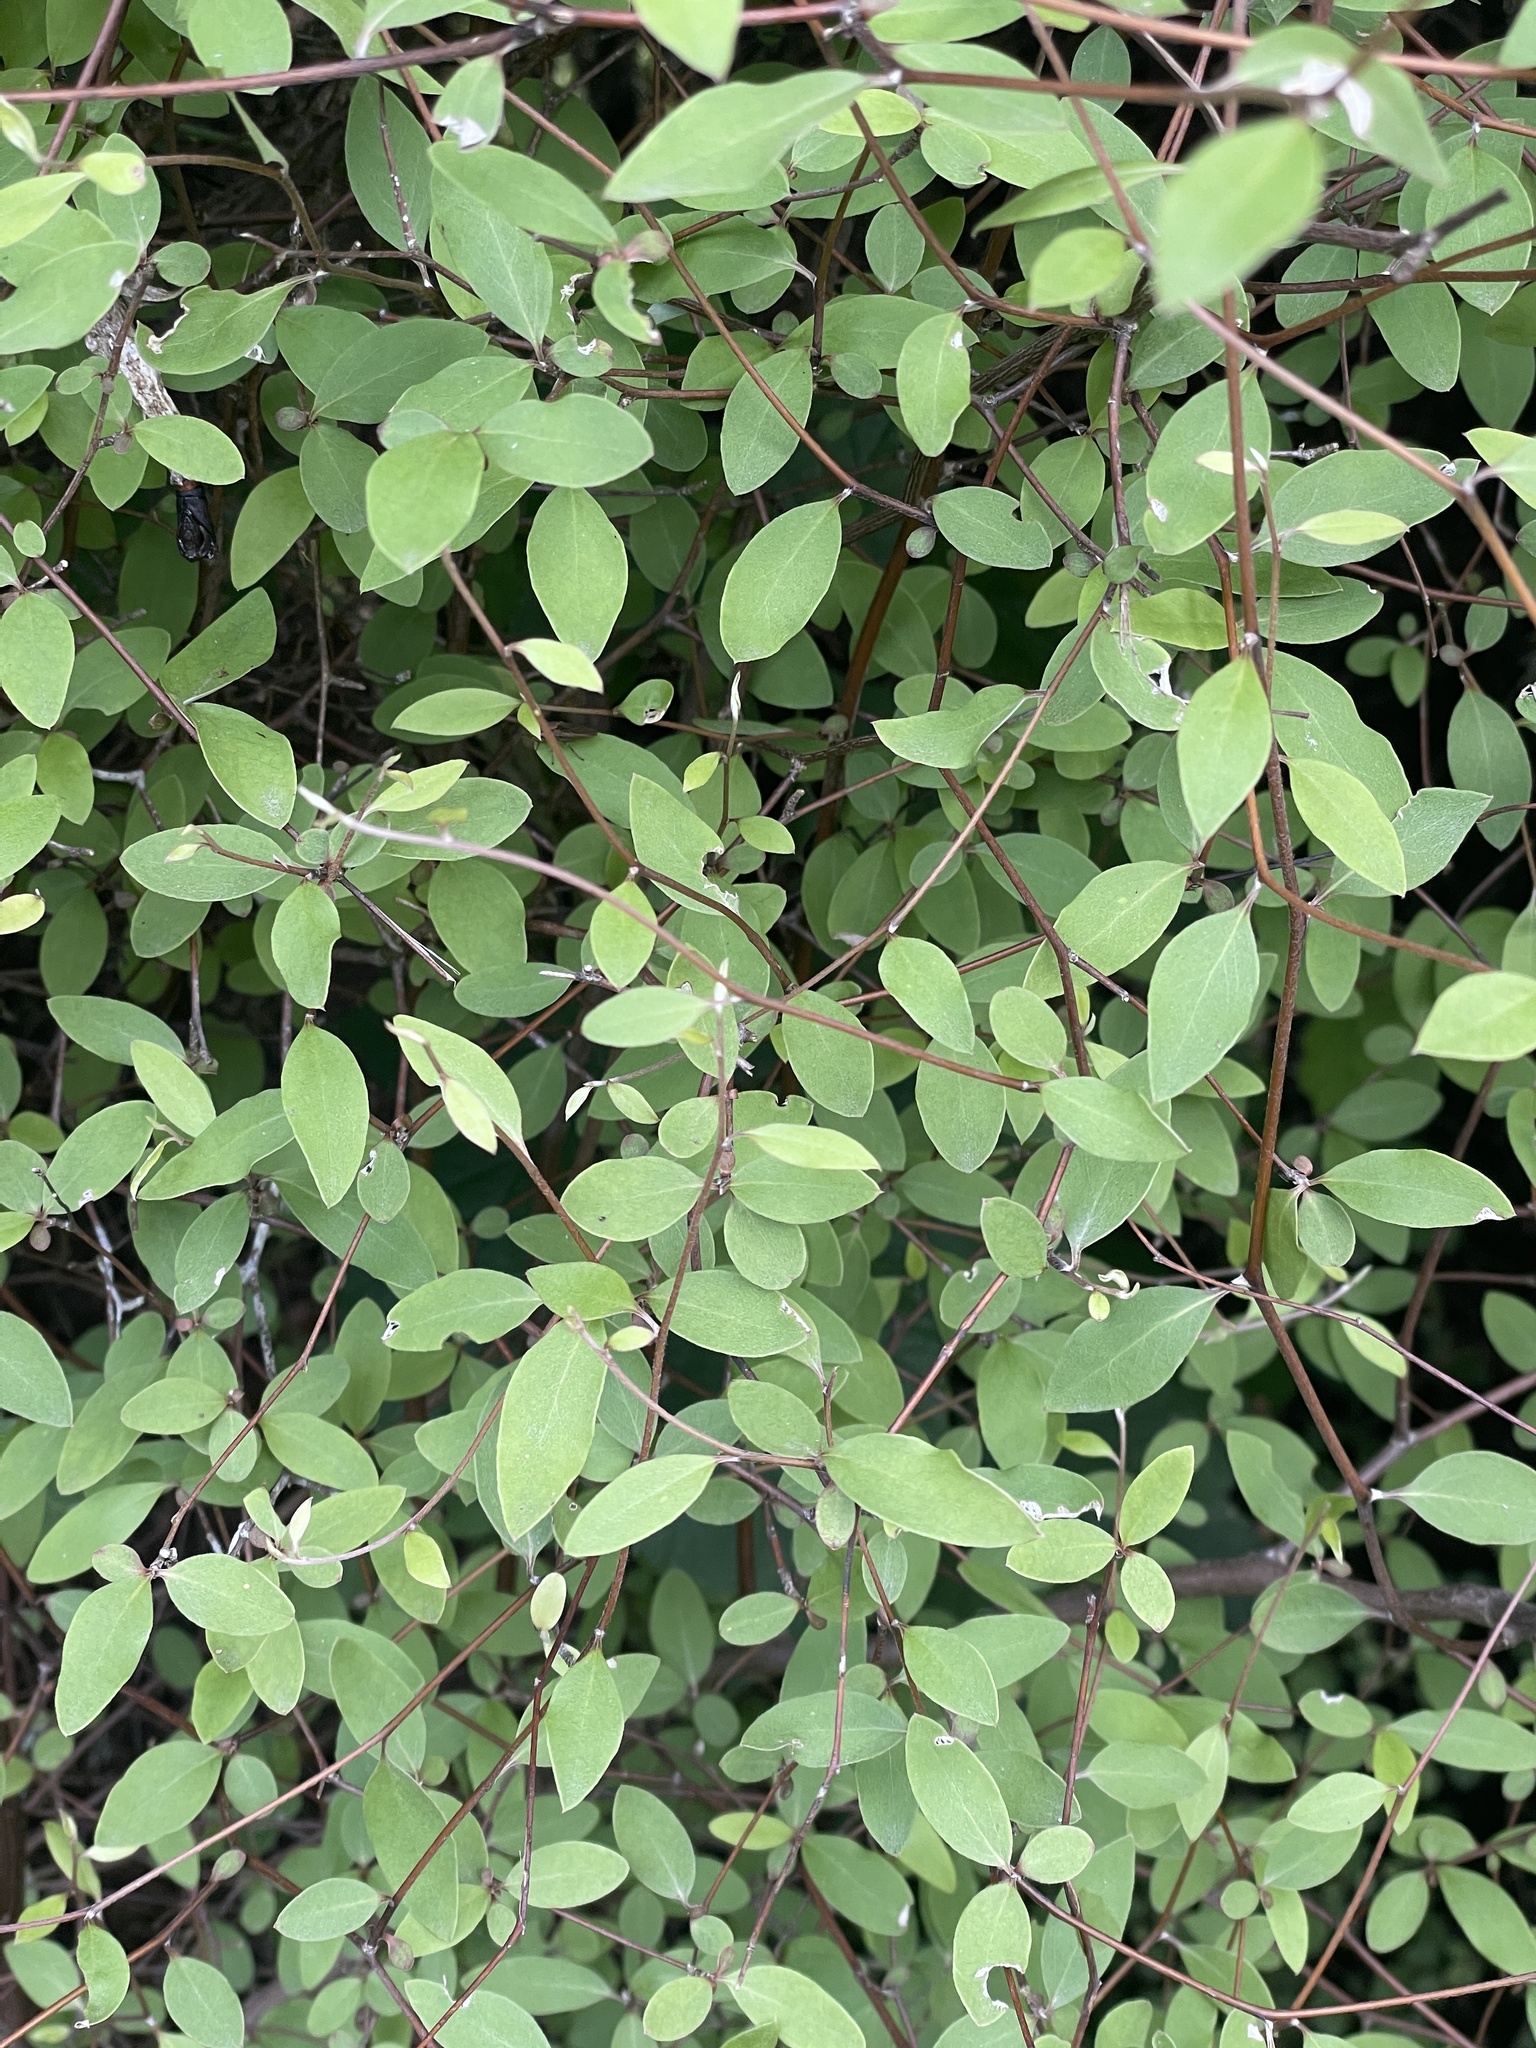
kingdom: Plantae
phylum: Tracheophyta
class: Magnoliopsida
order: Asterales
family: Asteraceae
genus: Olearia
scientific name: Olearia fragrantissima
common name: Fragrant tree daisy
